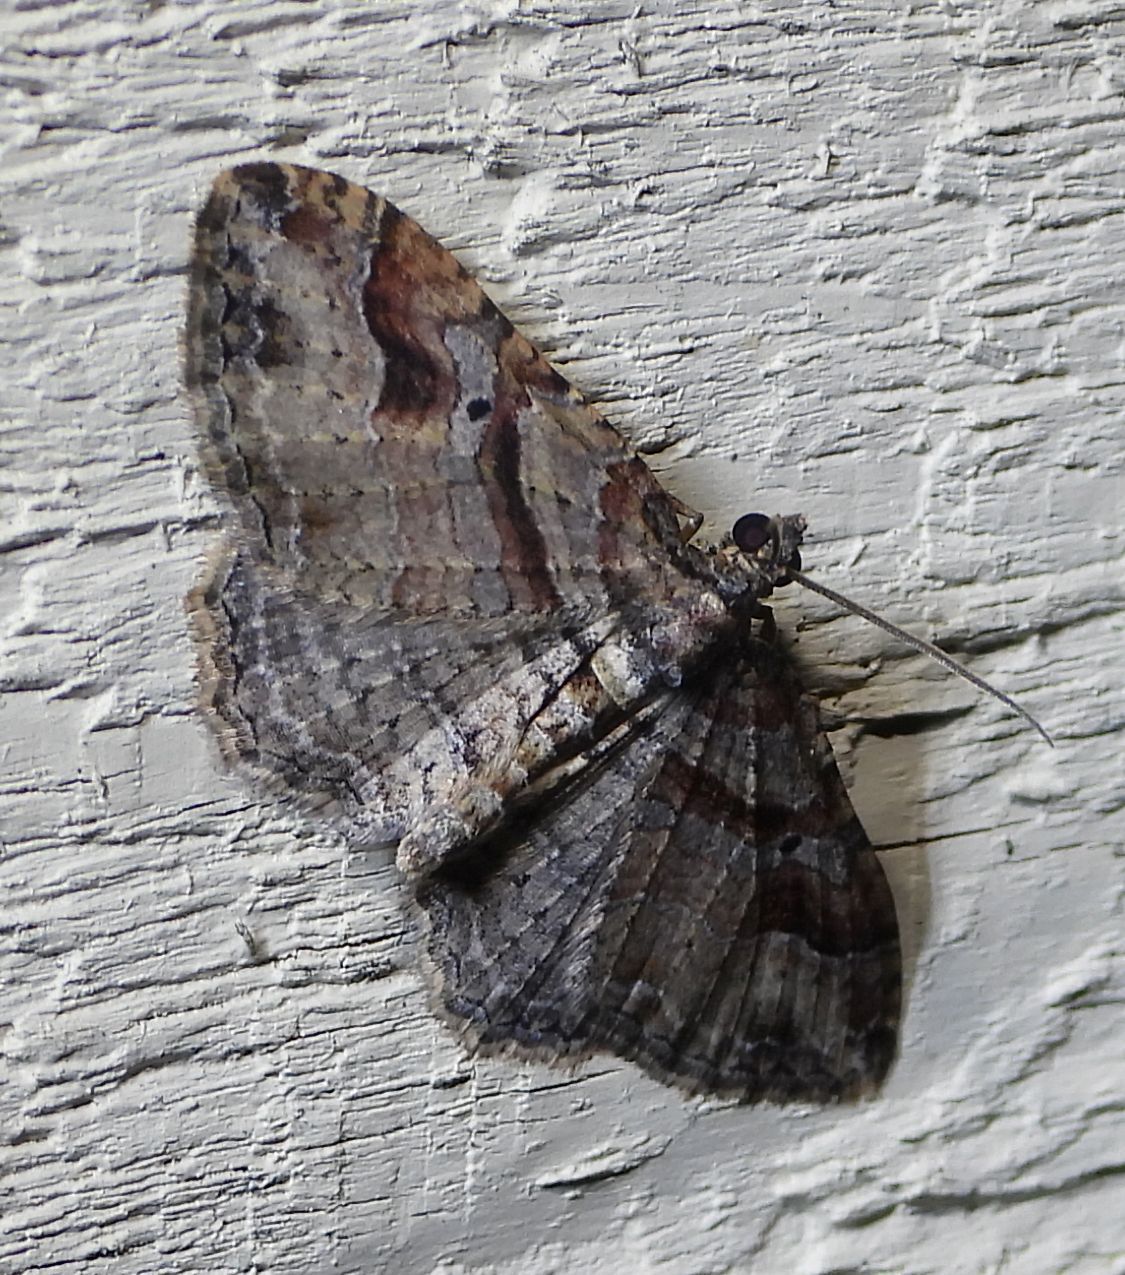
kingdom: Animalia
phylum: Arthropoda
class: Insecta
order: Lepidoptera
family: Geometridae
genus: Costaconvexa
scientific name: Costaconvexa centrostrigaria
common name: Bent-line carpet
